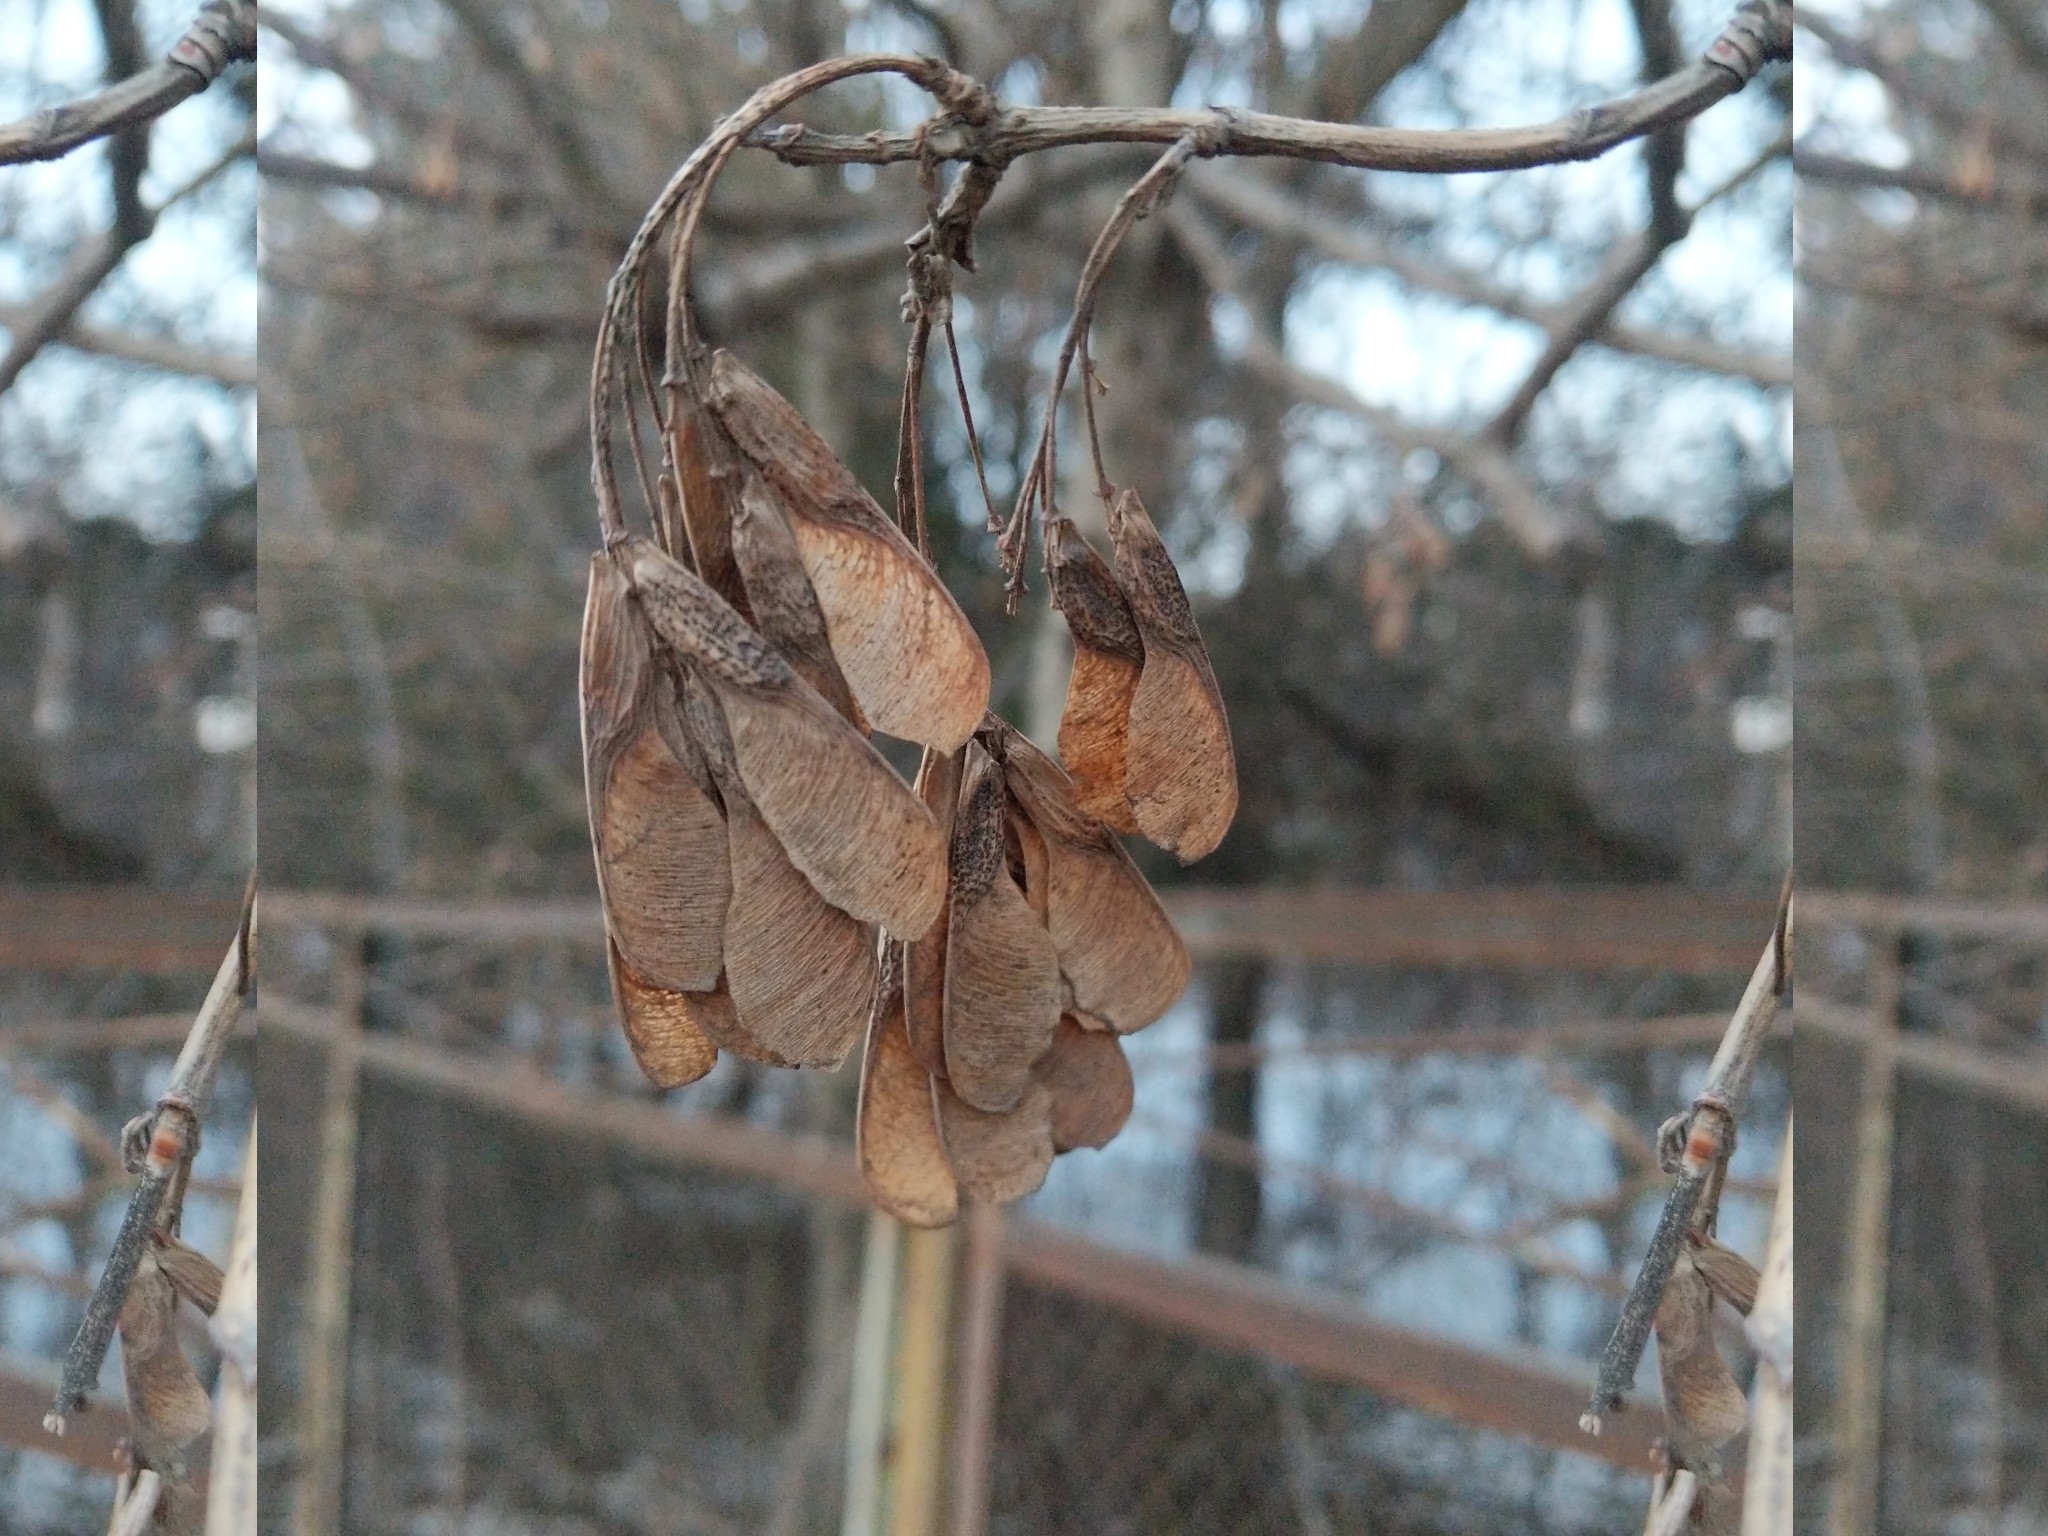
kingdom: Plantae
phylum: Tracheophyta
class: Magnoliopsida
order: Sapindales
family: Sapindaceae
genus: Acer
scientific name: Acer negundo
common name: Ashleaf maple
